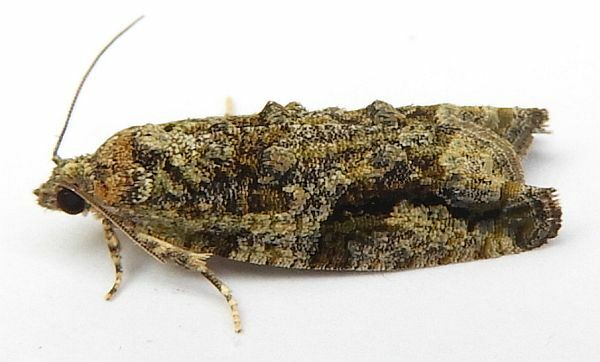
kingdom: Animalia
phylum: Arthropoda
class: Insecta
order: Lepidoptera
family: Tortricidae
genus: Proteoteras
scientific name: Proteoteras aesculana
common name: Maple twig borer moth
